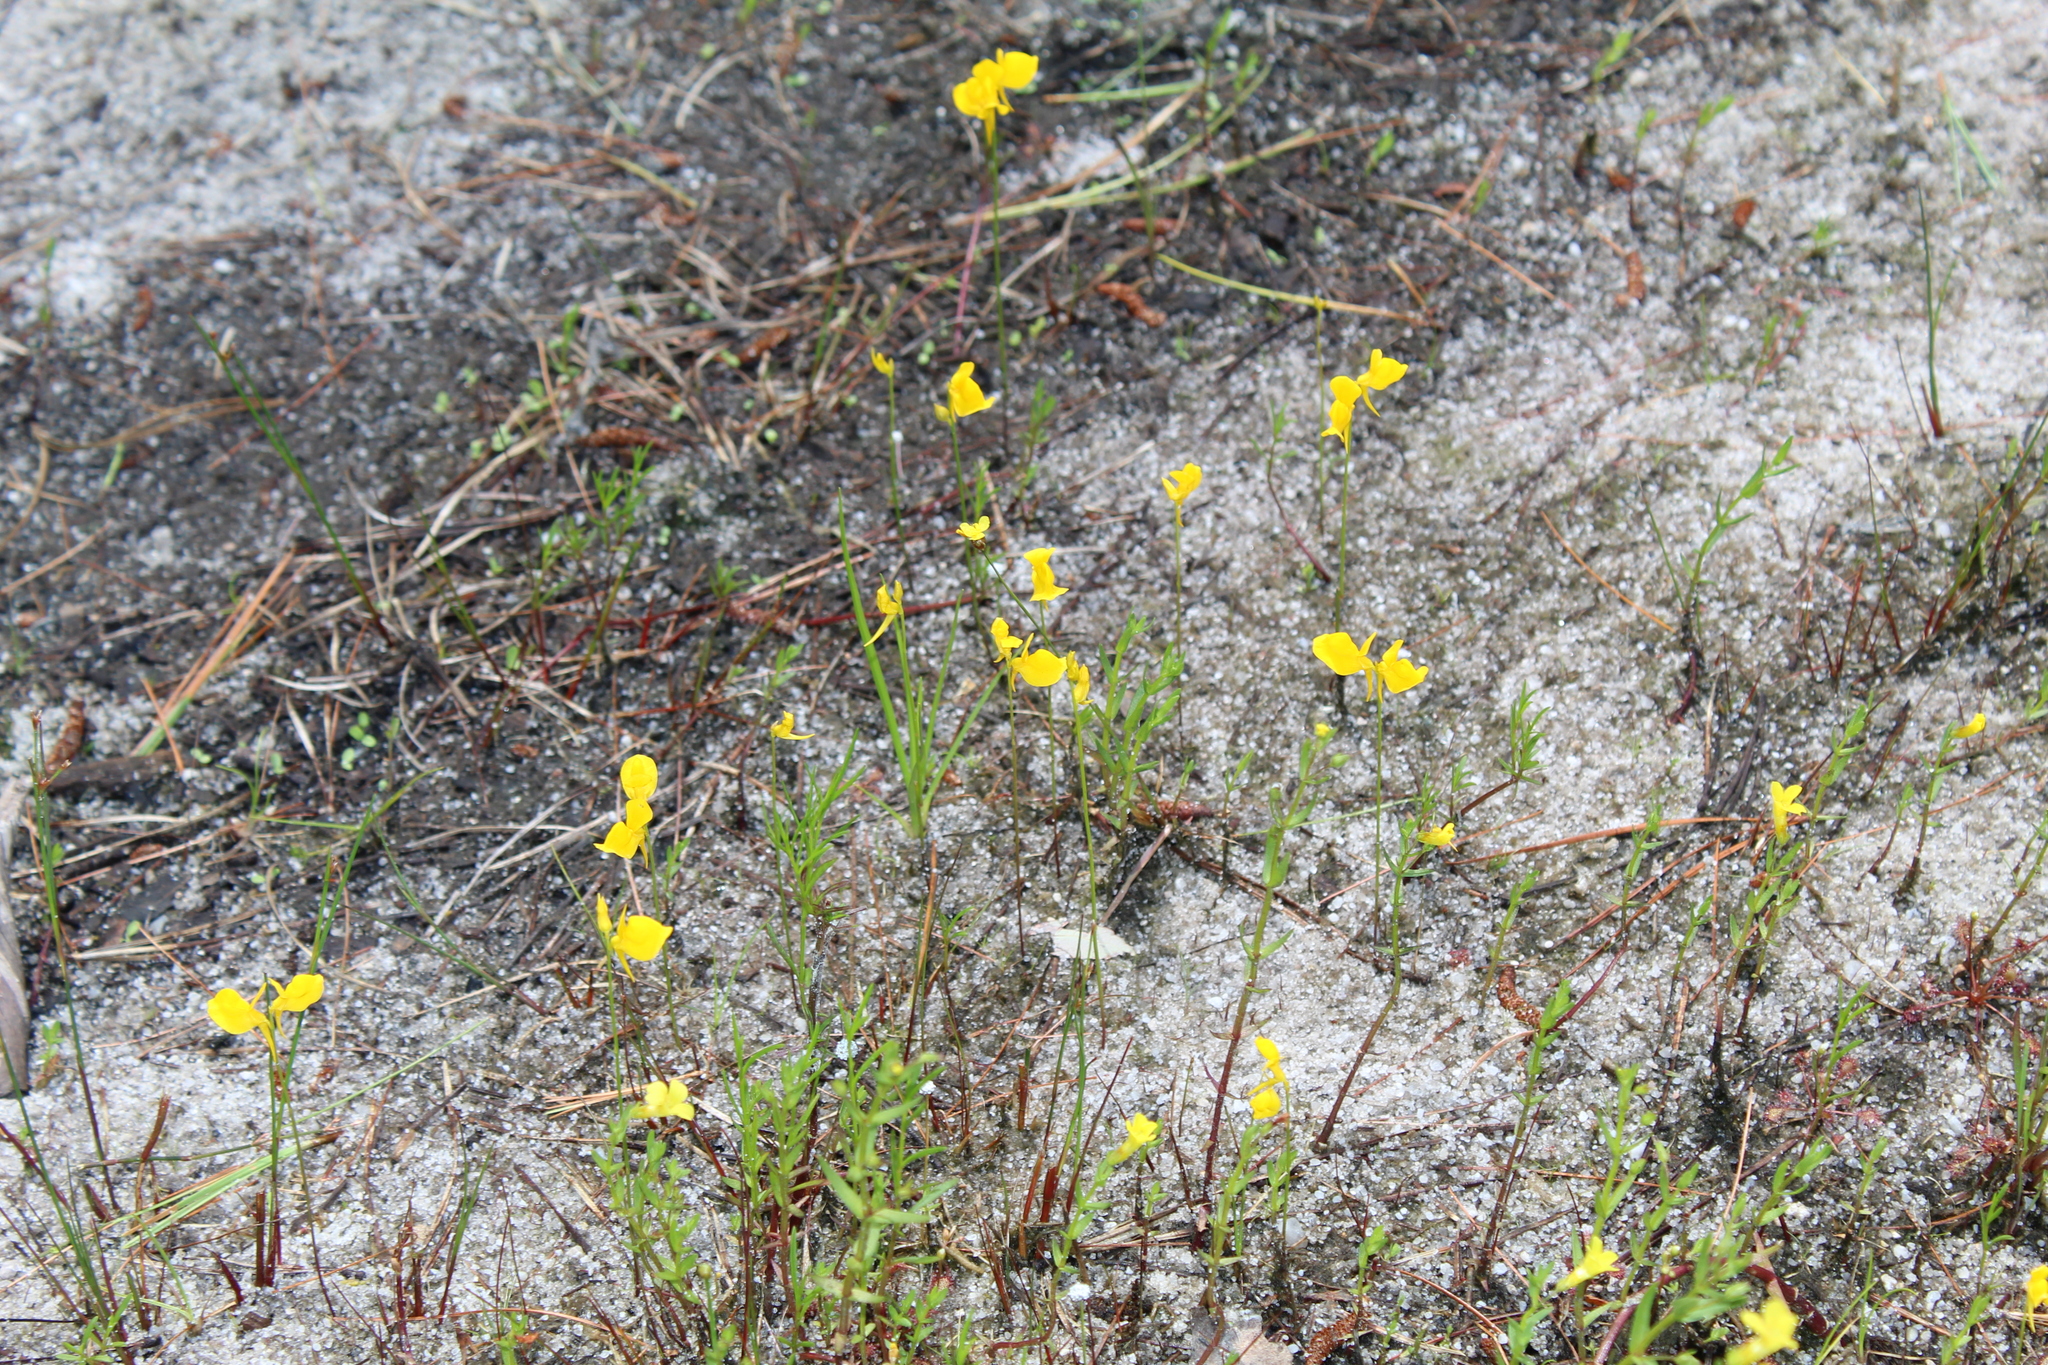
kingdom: Plantae
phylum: Tracheophyta
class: Magnoliopsida
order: Lamiales
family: Lentibulariaceae
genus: Utricularia
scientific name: Utricularia cornuta
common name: Horned bladderwort
